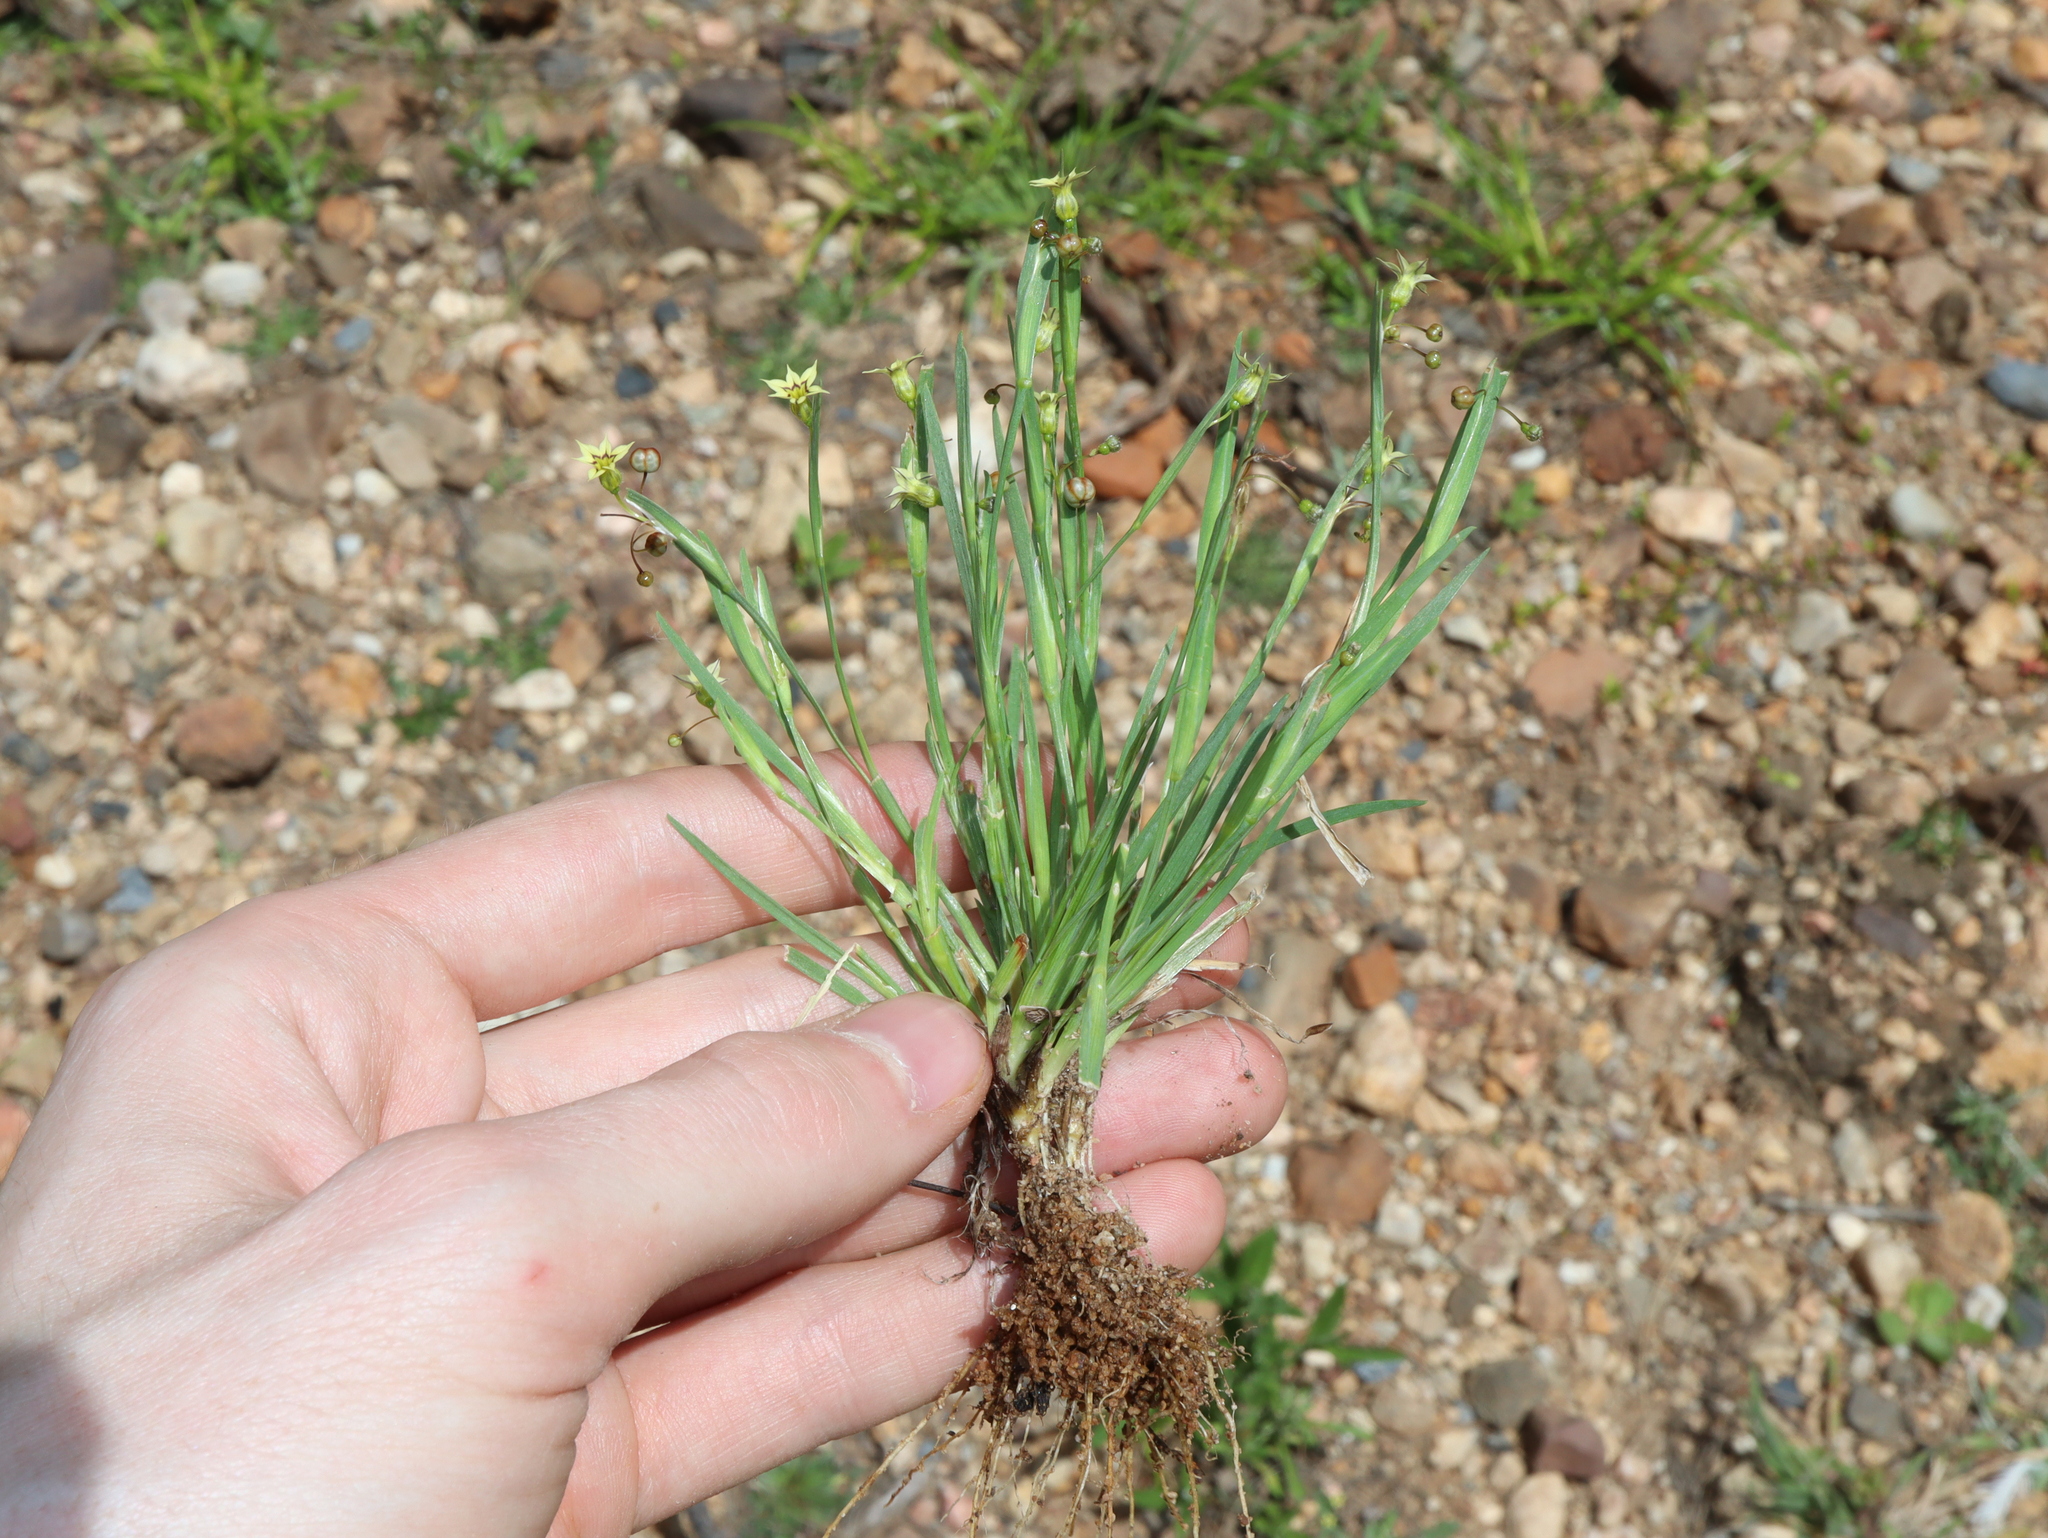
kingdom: Plantae
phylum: Tracheophyta
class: Liliopsida
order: Asparagales
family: Iridaceae
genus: Sisyrinchium
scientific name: Sisyrinchium micranthum
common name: Bermuda pigroot
